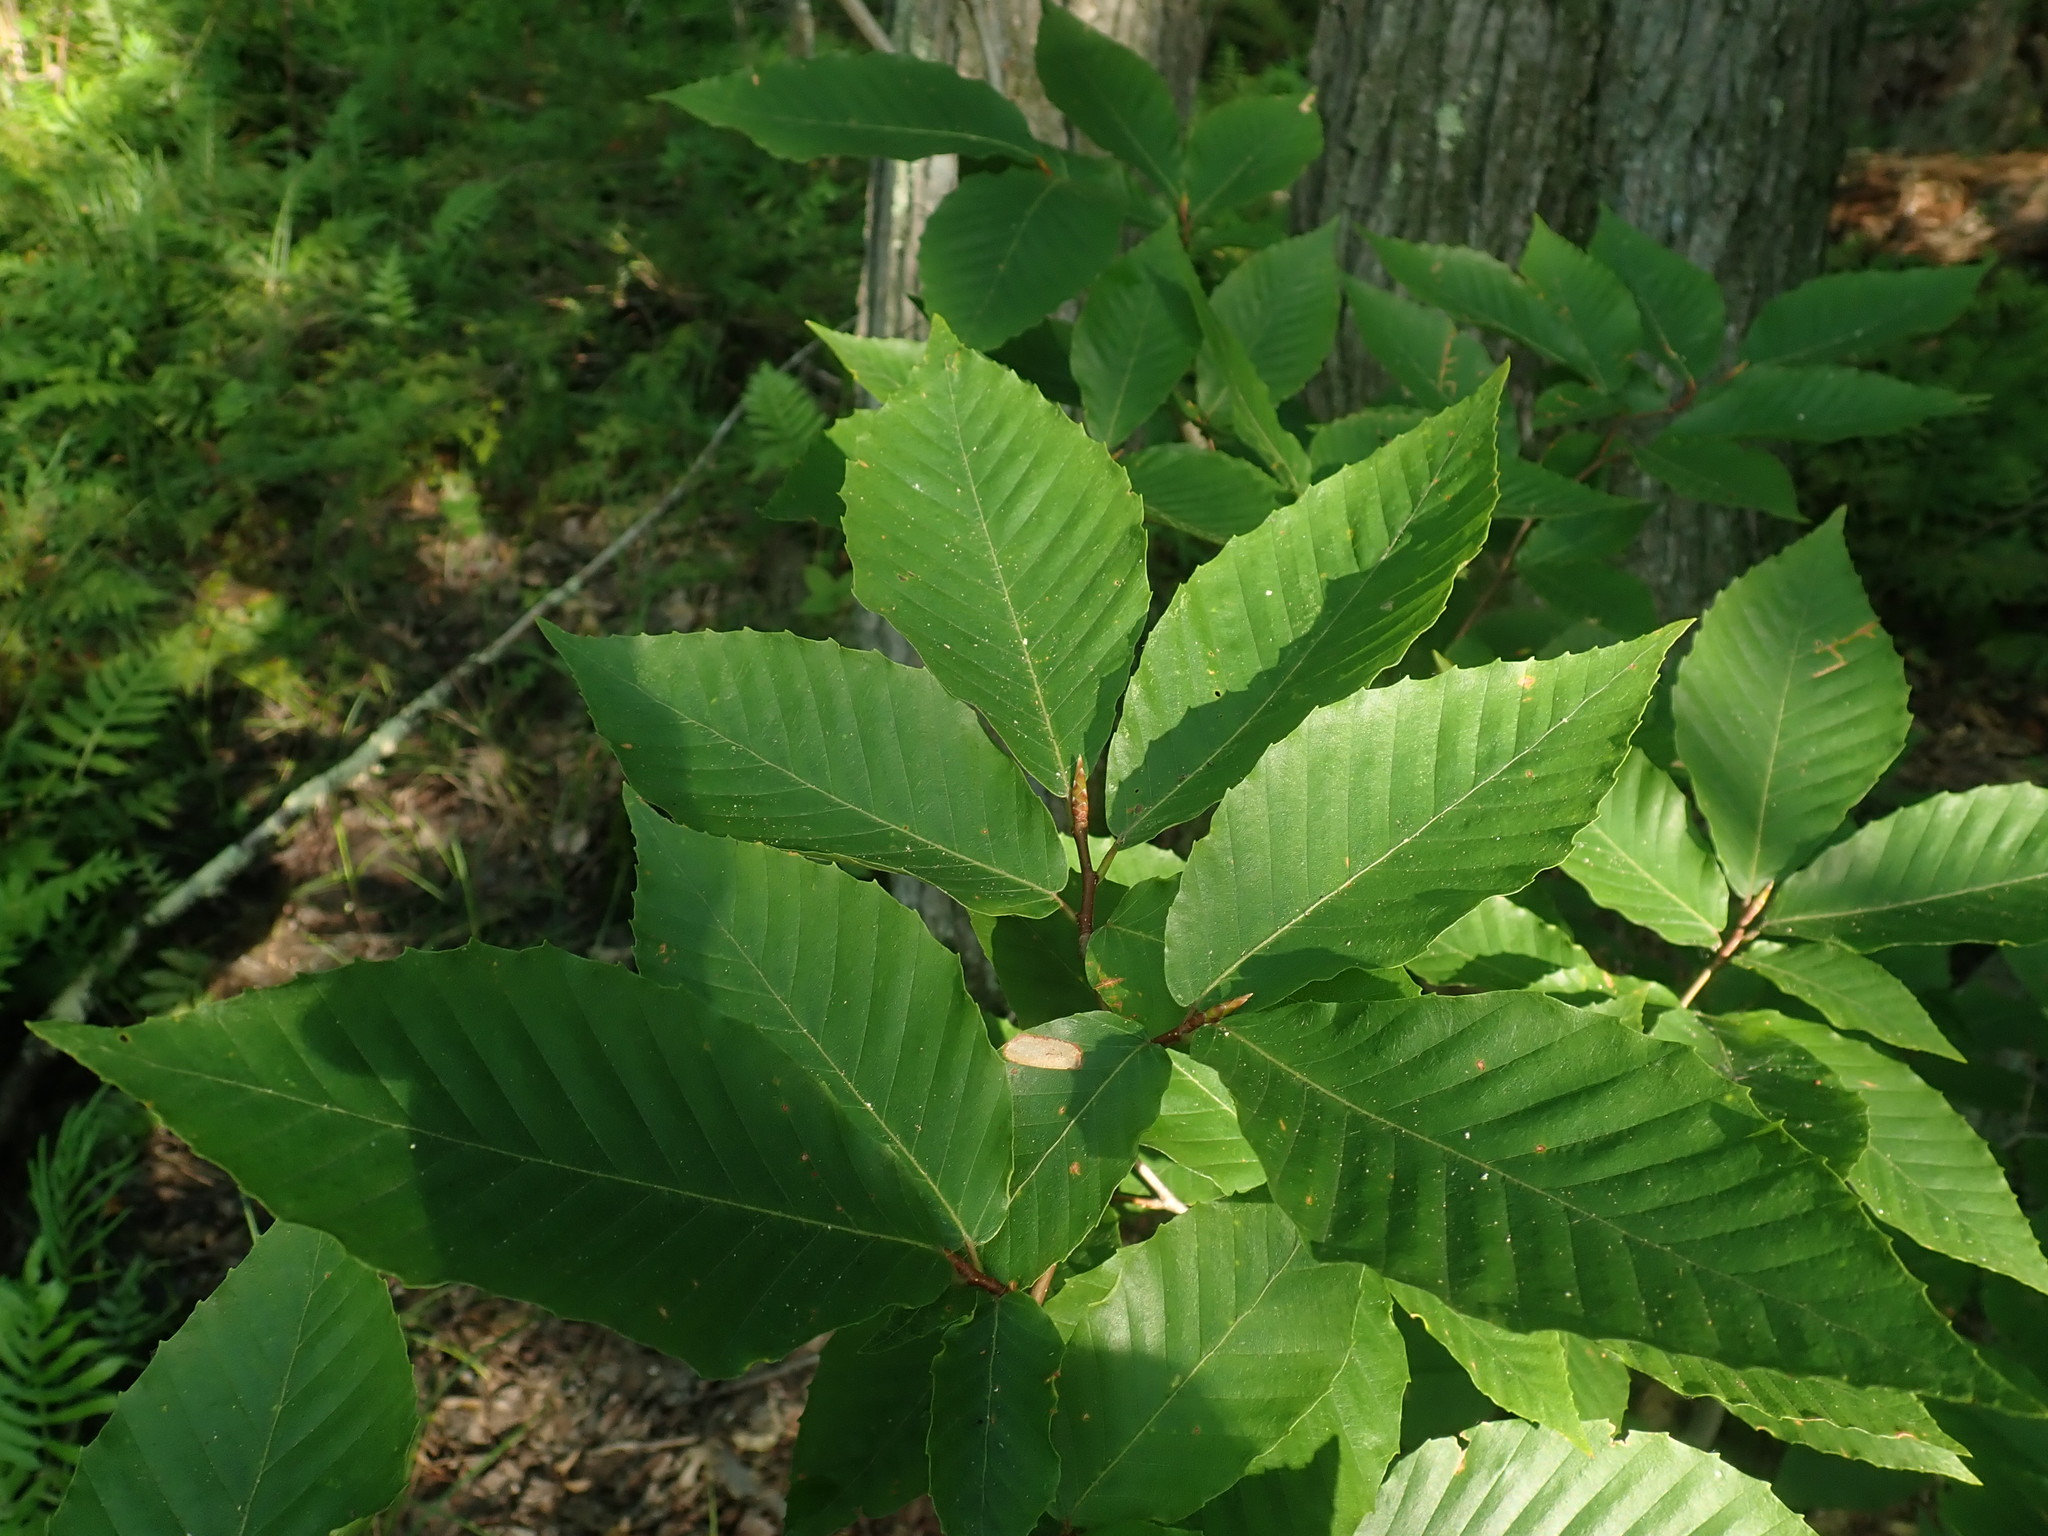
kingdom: Plantae
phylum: Tracheophyta
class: Magnoliopsida
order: Fagales
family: Fagaceae
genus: Fagus
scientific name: Fagus grandifolia
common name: American beech
